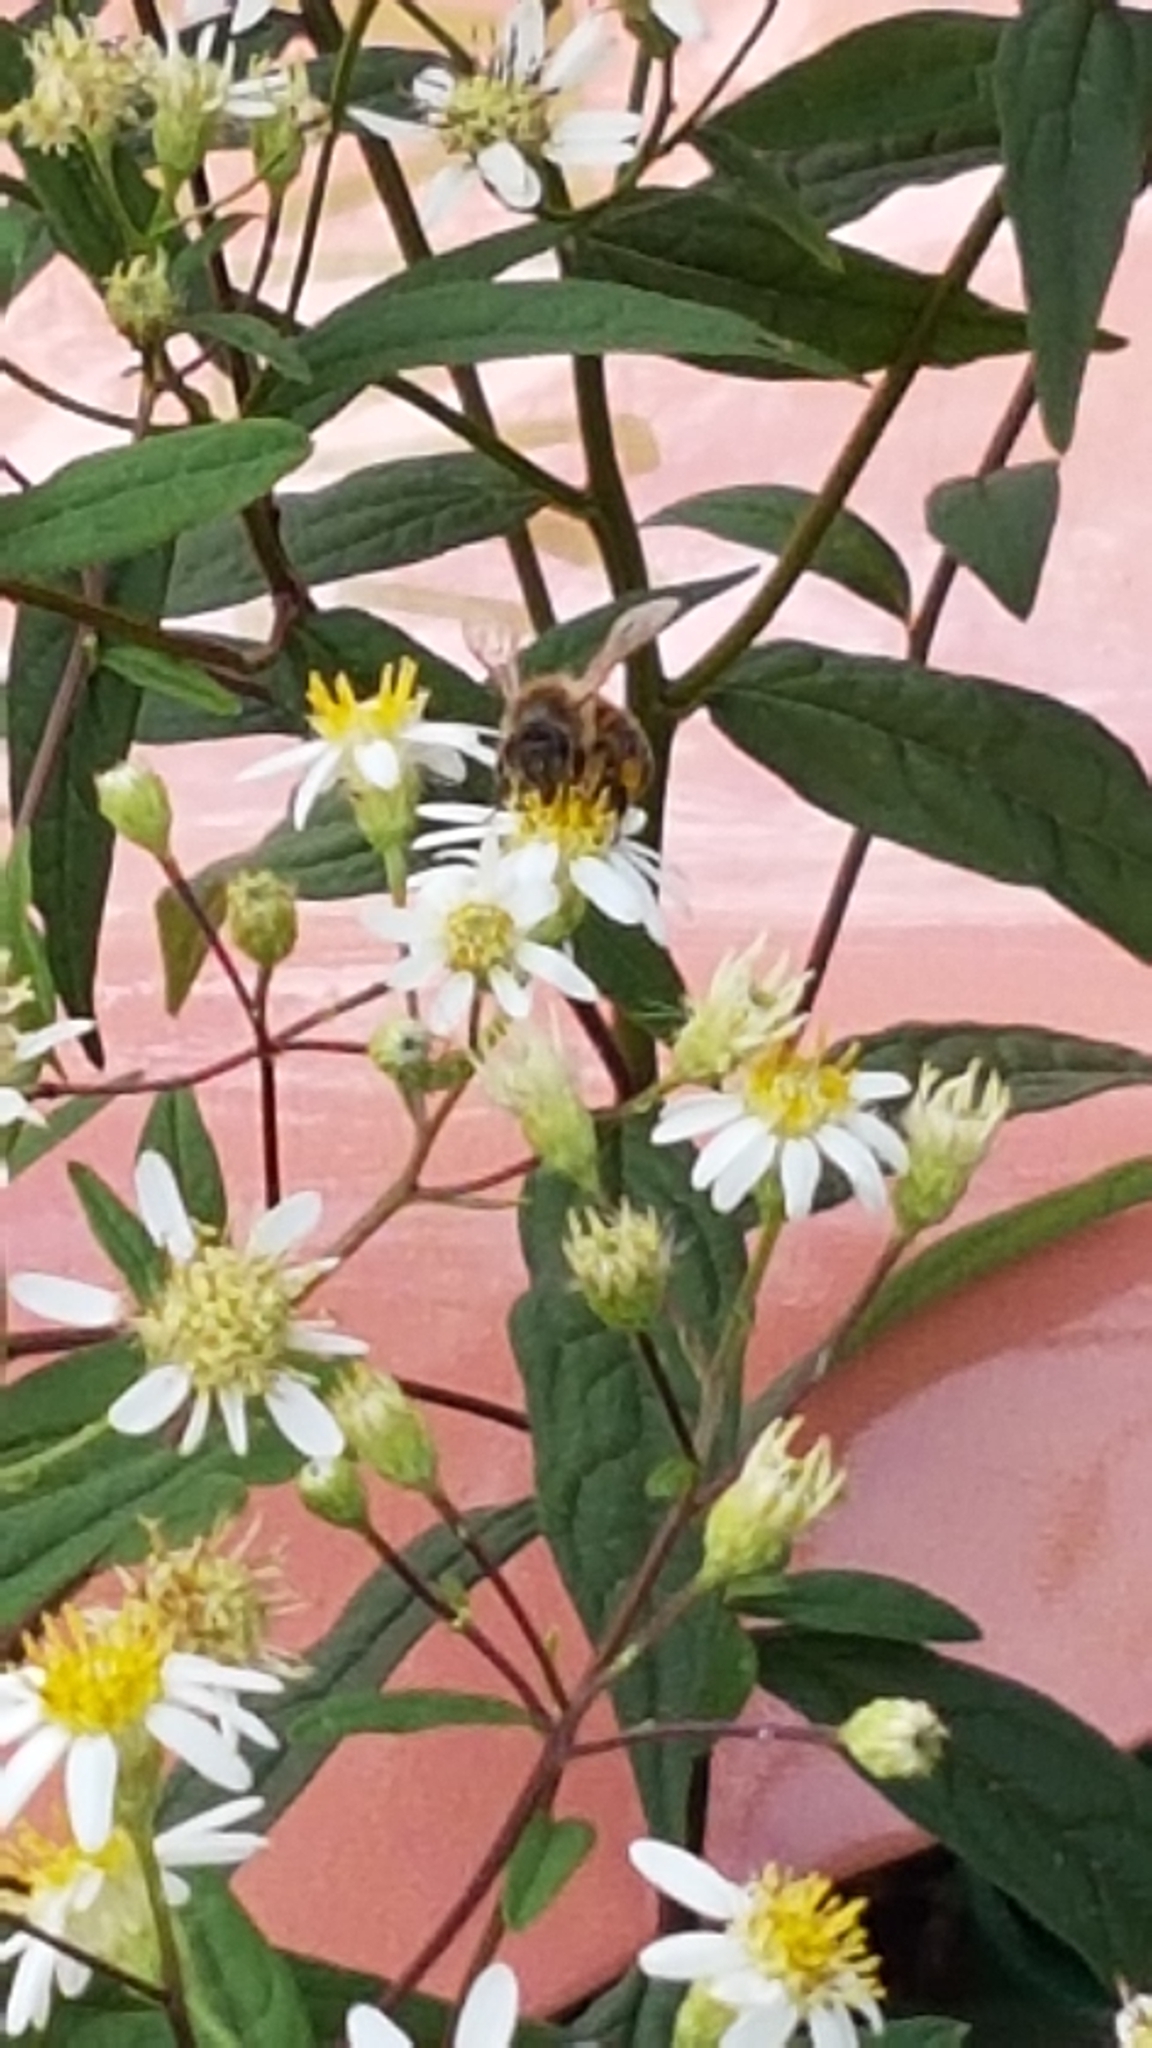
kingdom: Animalia
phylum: Arthropoda
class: Insecta
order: Hymenoptera
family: Apidae
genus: Apis
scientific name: Apis mellifera
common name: Honey bee
